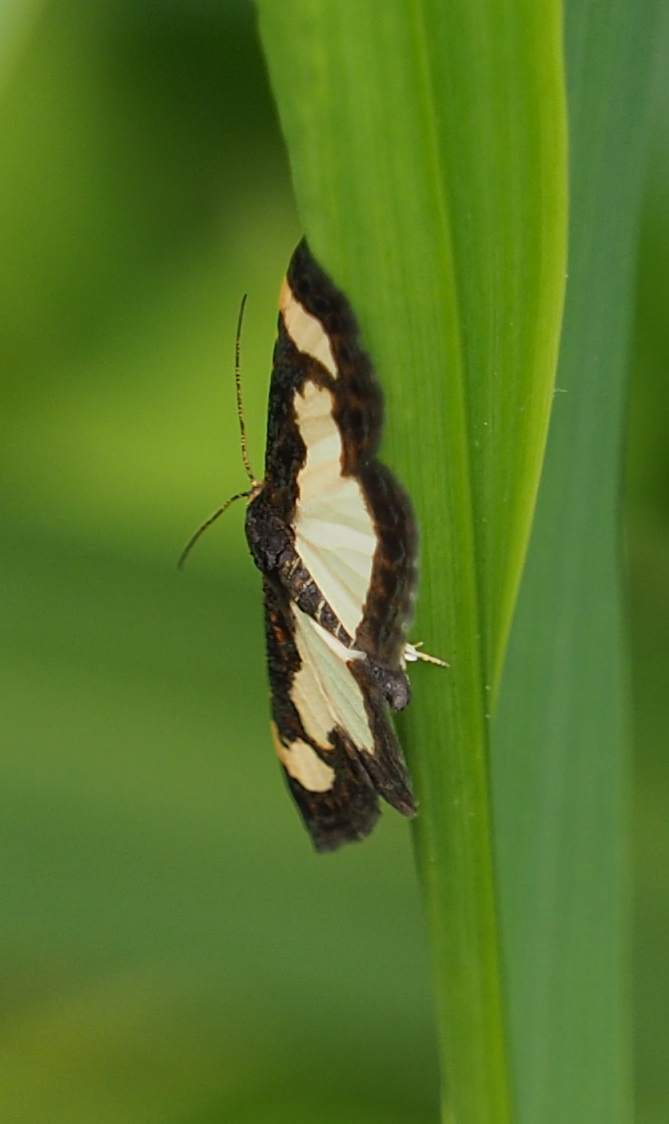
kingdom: Animalia
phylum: Arthropoda
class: Insecta
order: Lepidoptera
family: Geometridae
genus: Heliomata
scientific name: Heliomata cycladata
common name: Common spring moth
